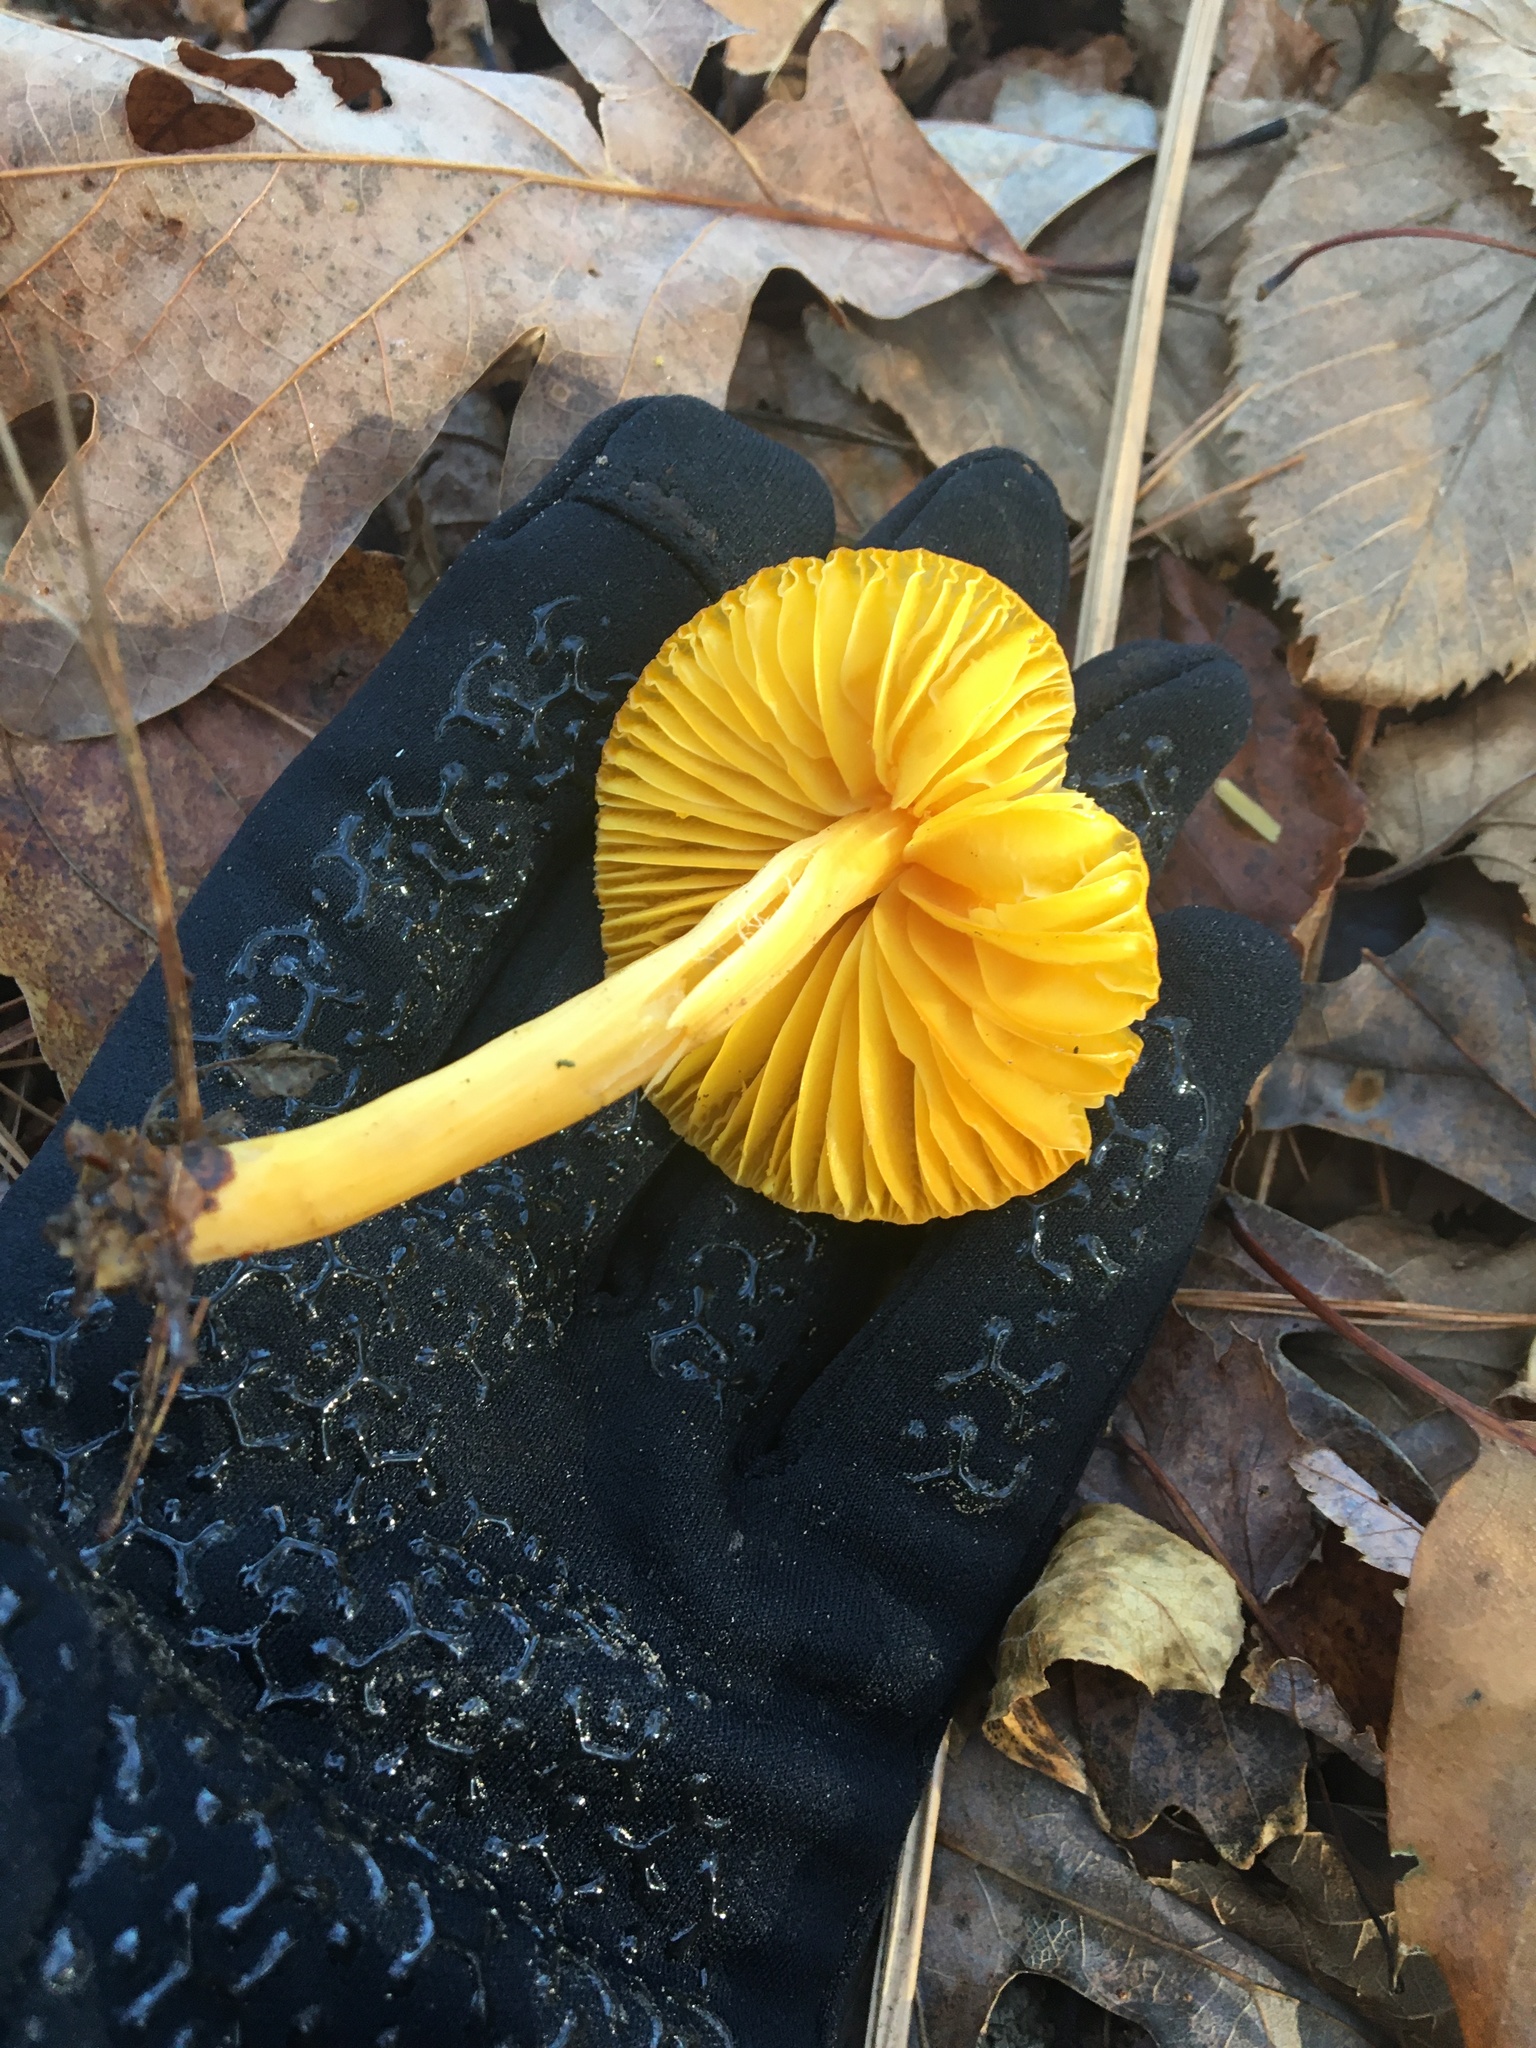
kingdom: Fungi
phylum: Basidiomycota
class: Agaricomycetes
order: Agaricales
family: Hygrophoraceae
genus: Humidicutis
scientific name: Humidicutis marginata
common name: Orange gilled waxcap
